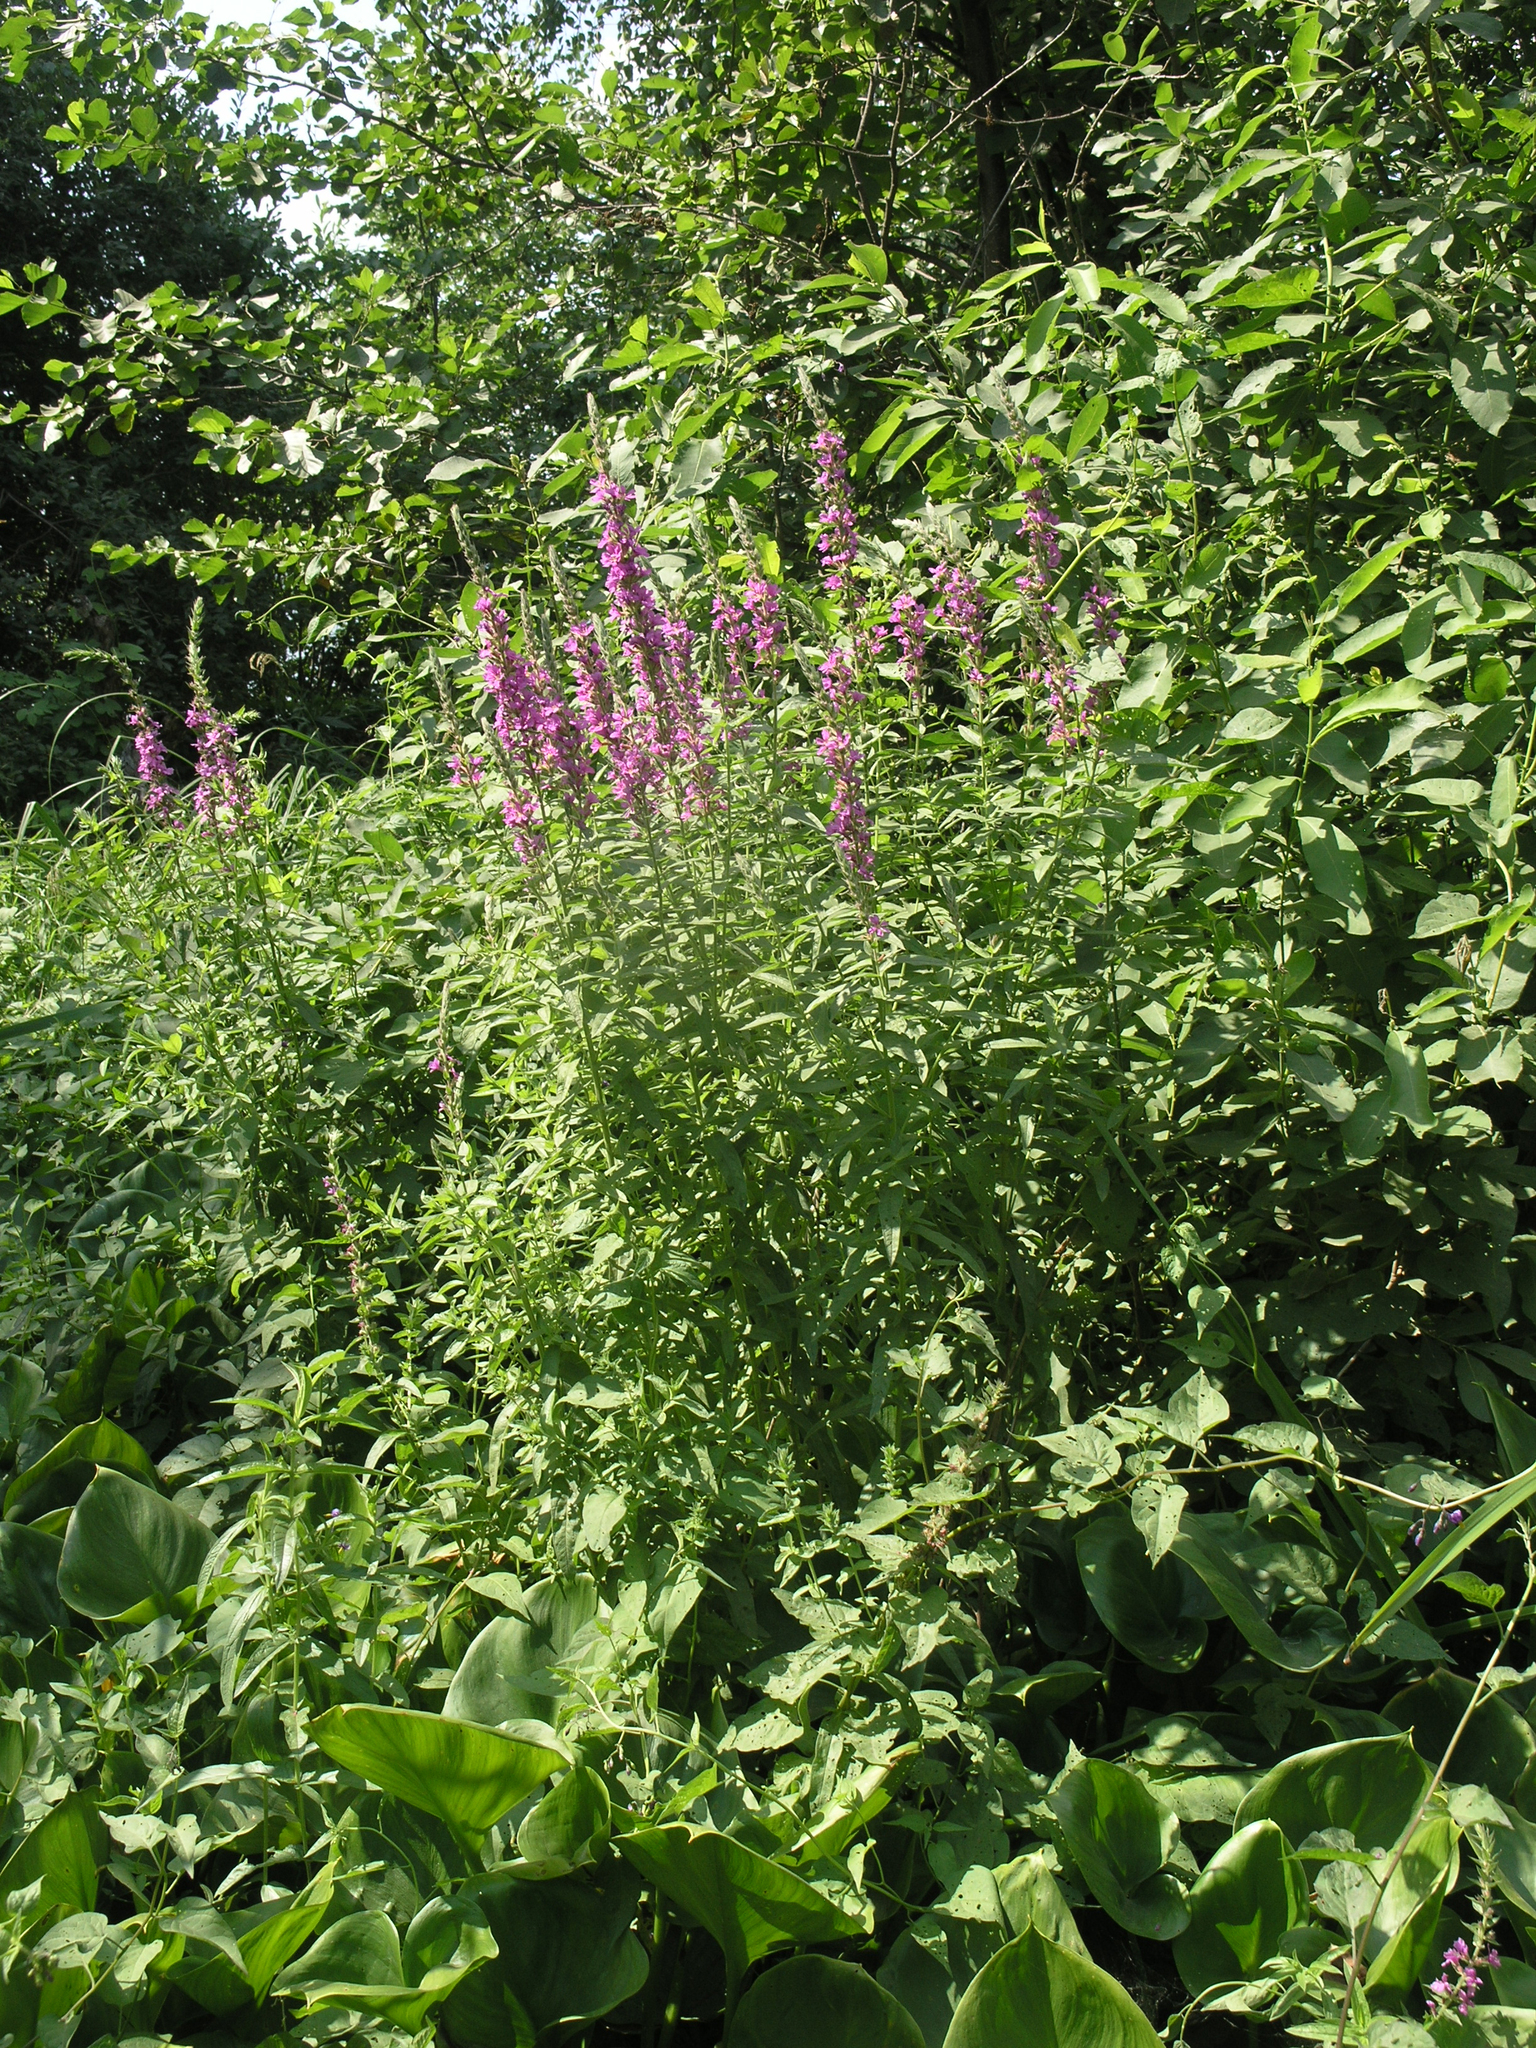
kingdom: Plantae
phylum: Tracheophyta
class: Magnoliopsida
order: Myrtales
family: Lythraceae
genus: Lythrum
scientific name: Lythrum salicaria
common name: Purple loosestrife
